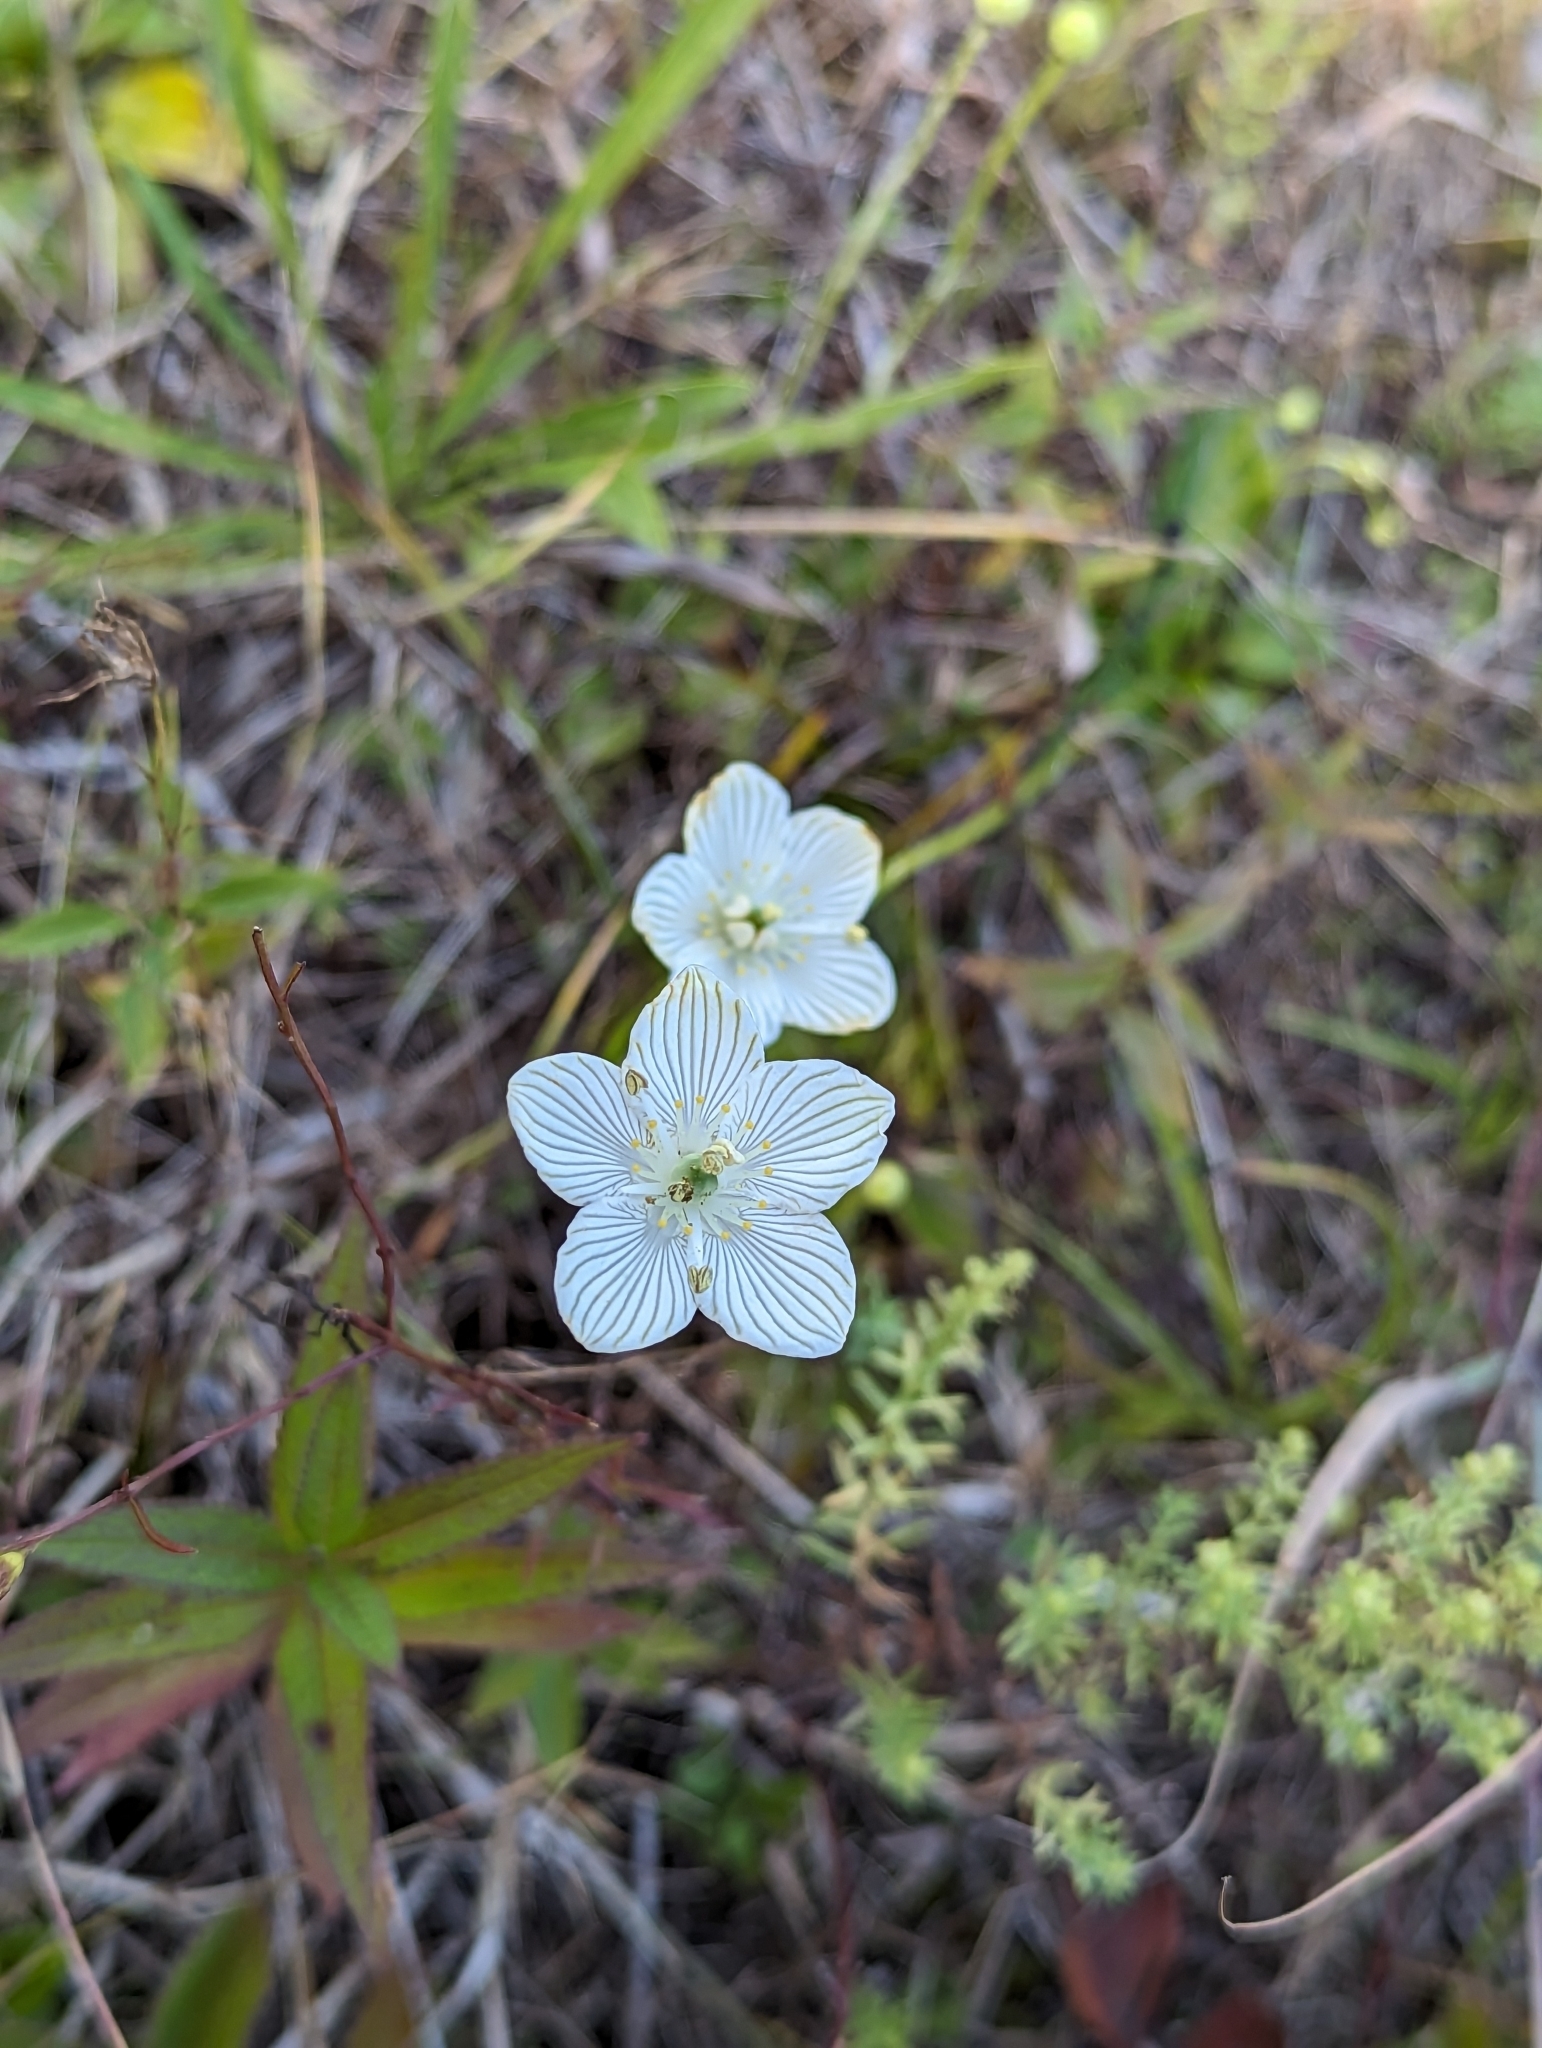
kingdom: Plantae
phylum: Tracheophyta
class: Magnoliopsida
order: Celastrales
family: Parnassiaceae
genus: Parnassia
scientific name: Parnassia glauca
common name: American grass-of-parnassus
